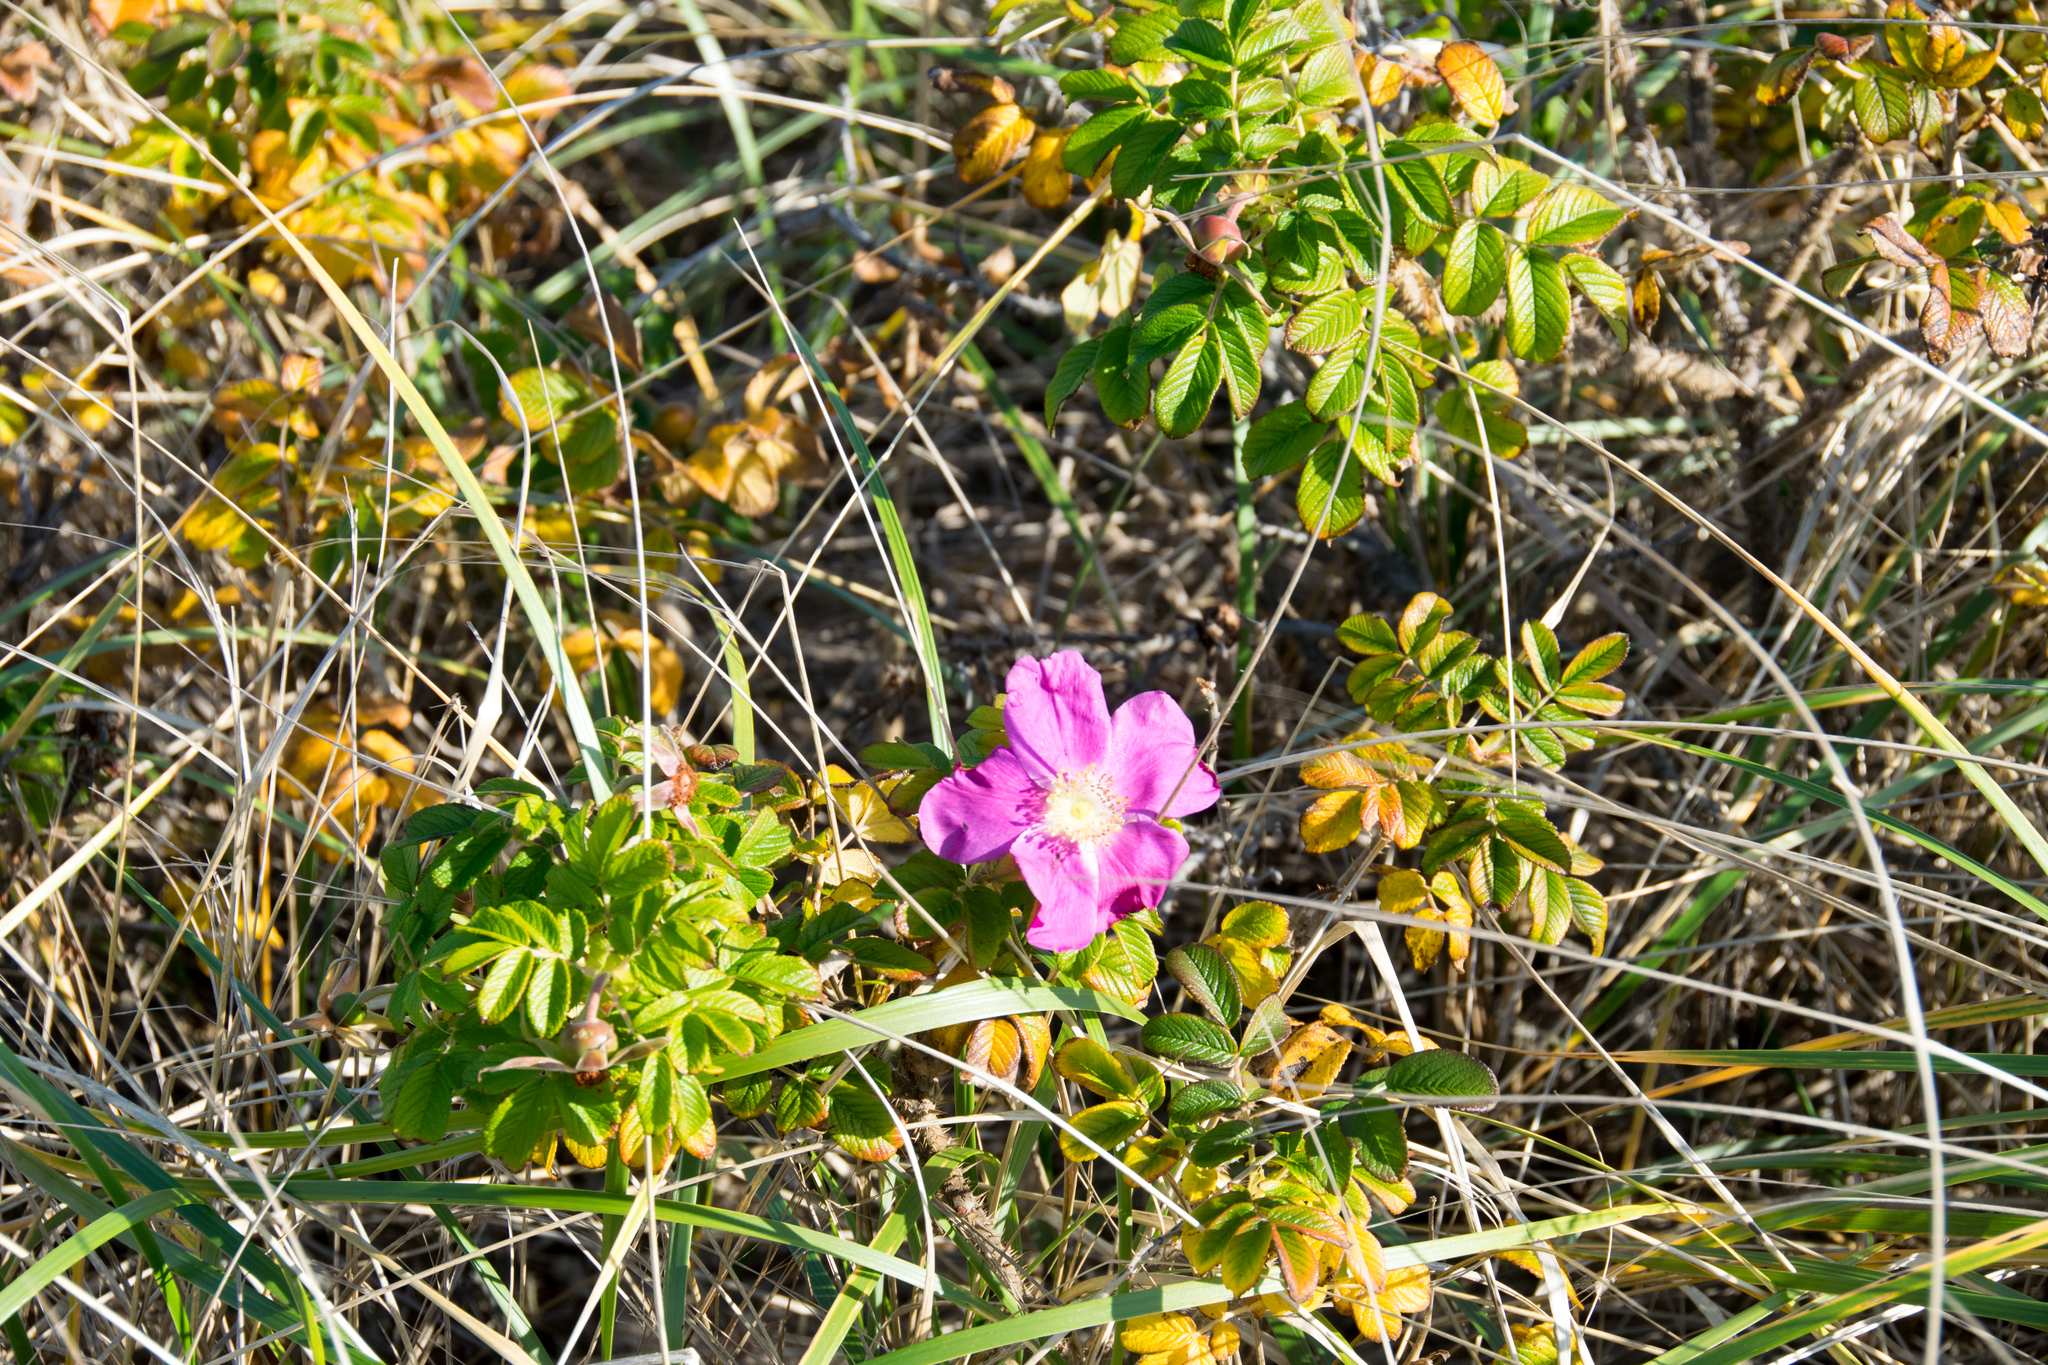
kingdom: Plantae
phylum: Tracheophyta
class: Magnoliopsida
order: Rosales
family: Rosaceae
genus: Rosa
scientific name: Rosa rugosa
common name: Japanese rose
